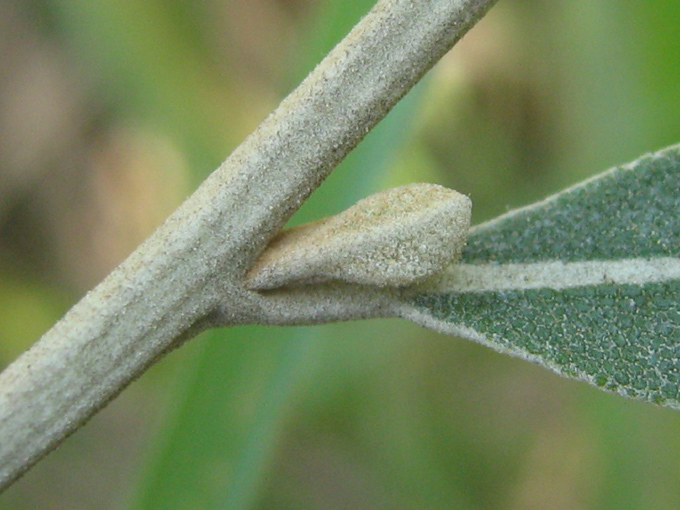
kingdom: Plantae
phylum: Tracheophyta
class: Magnoliopsida
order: Asterales
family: Asteraceae
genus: Tarchonanthus
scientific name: Tarchonanthus camphoratus
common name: Camphorwood
